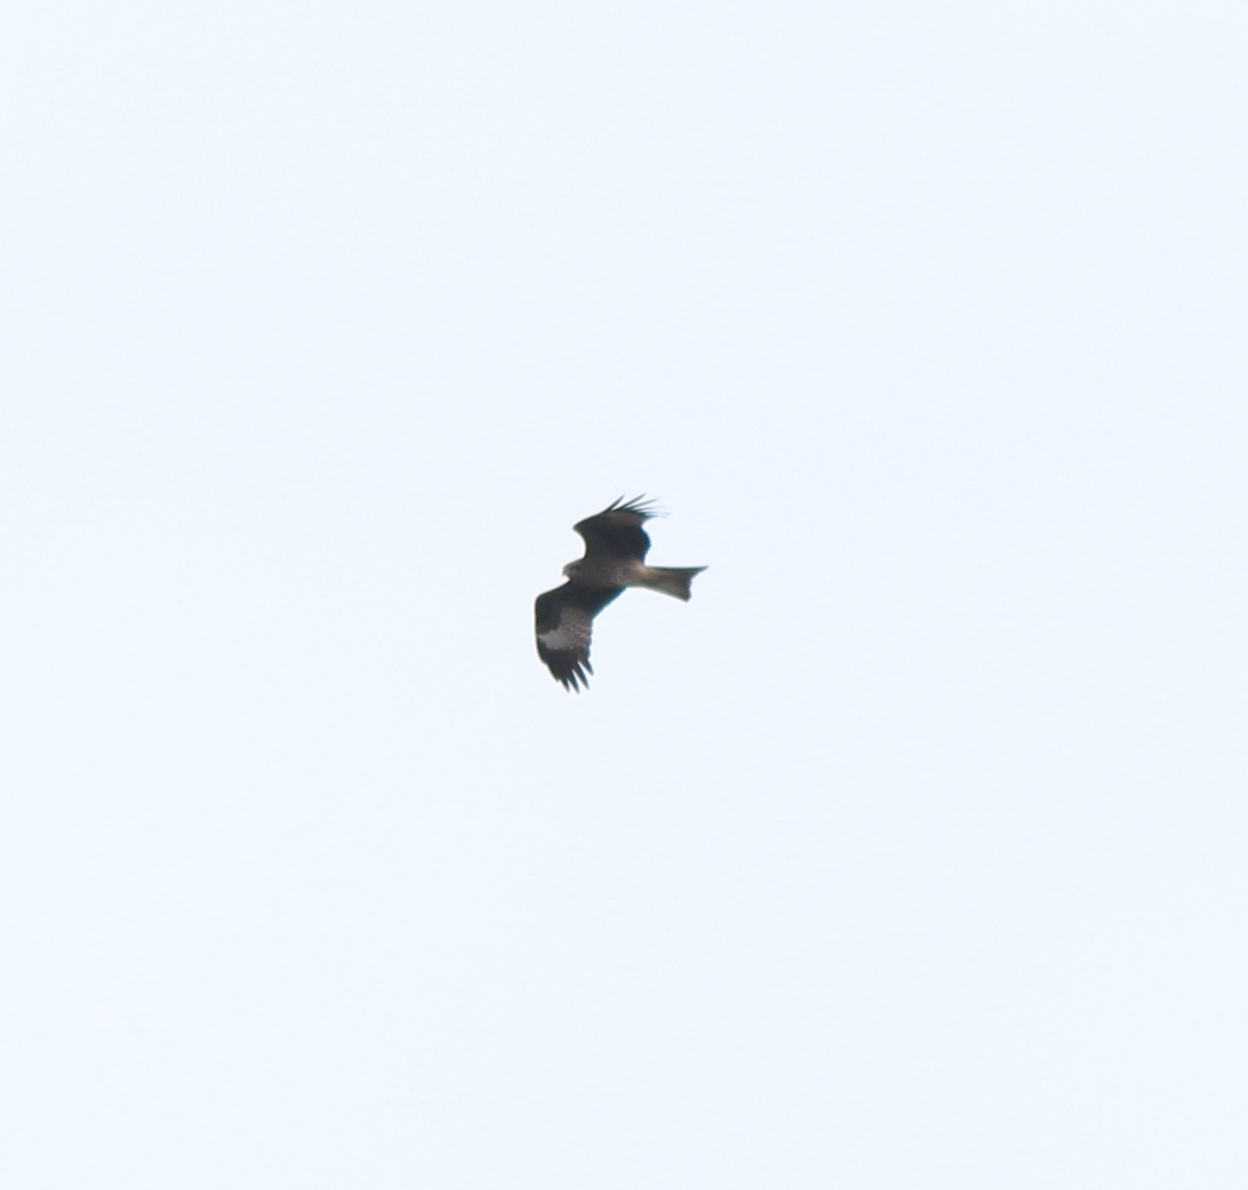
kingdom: Animalia
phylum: Chordata
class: Aves
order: Accipitriformes
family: Accipitridae
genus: Milvus
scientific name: Milvus migrans
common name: Black kite
